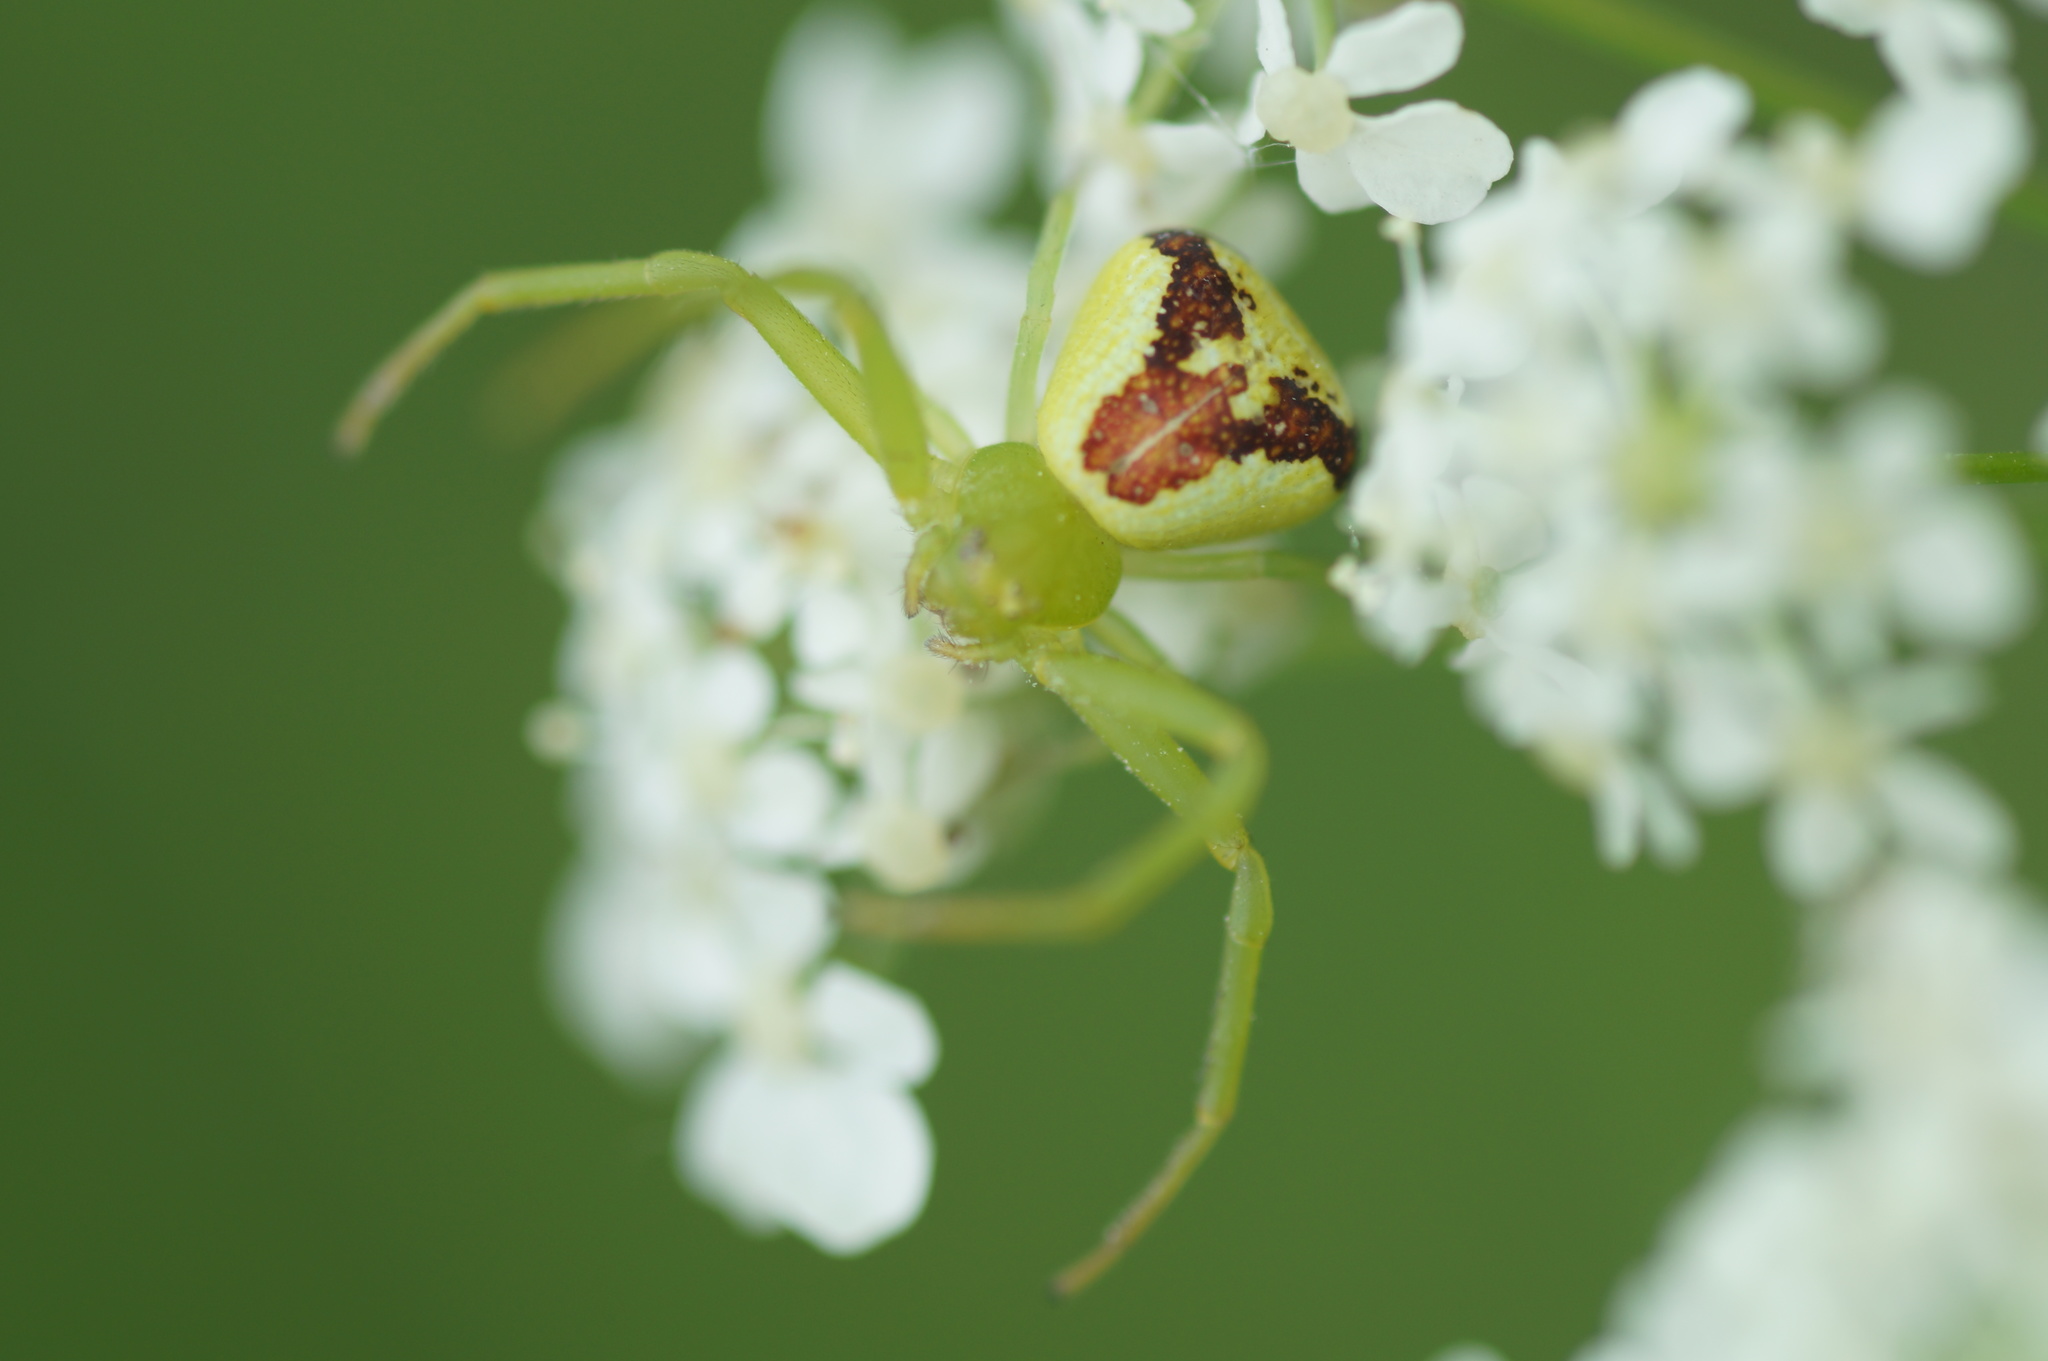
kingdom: Animalia
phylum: Arthropoda
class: Arachnida
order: Araneae
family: Thomisidae
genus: Ebrechtella
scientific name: Ebrechtella tricuspidata
